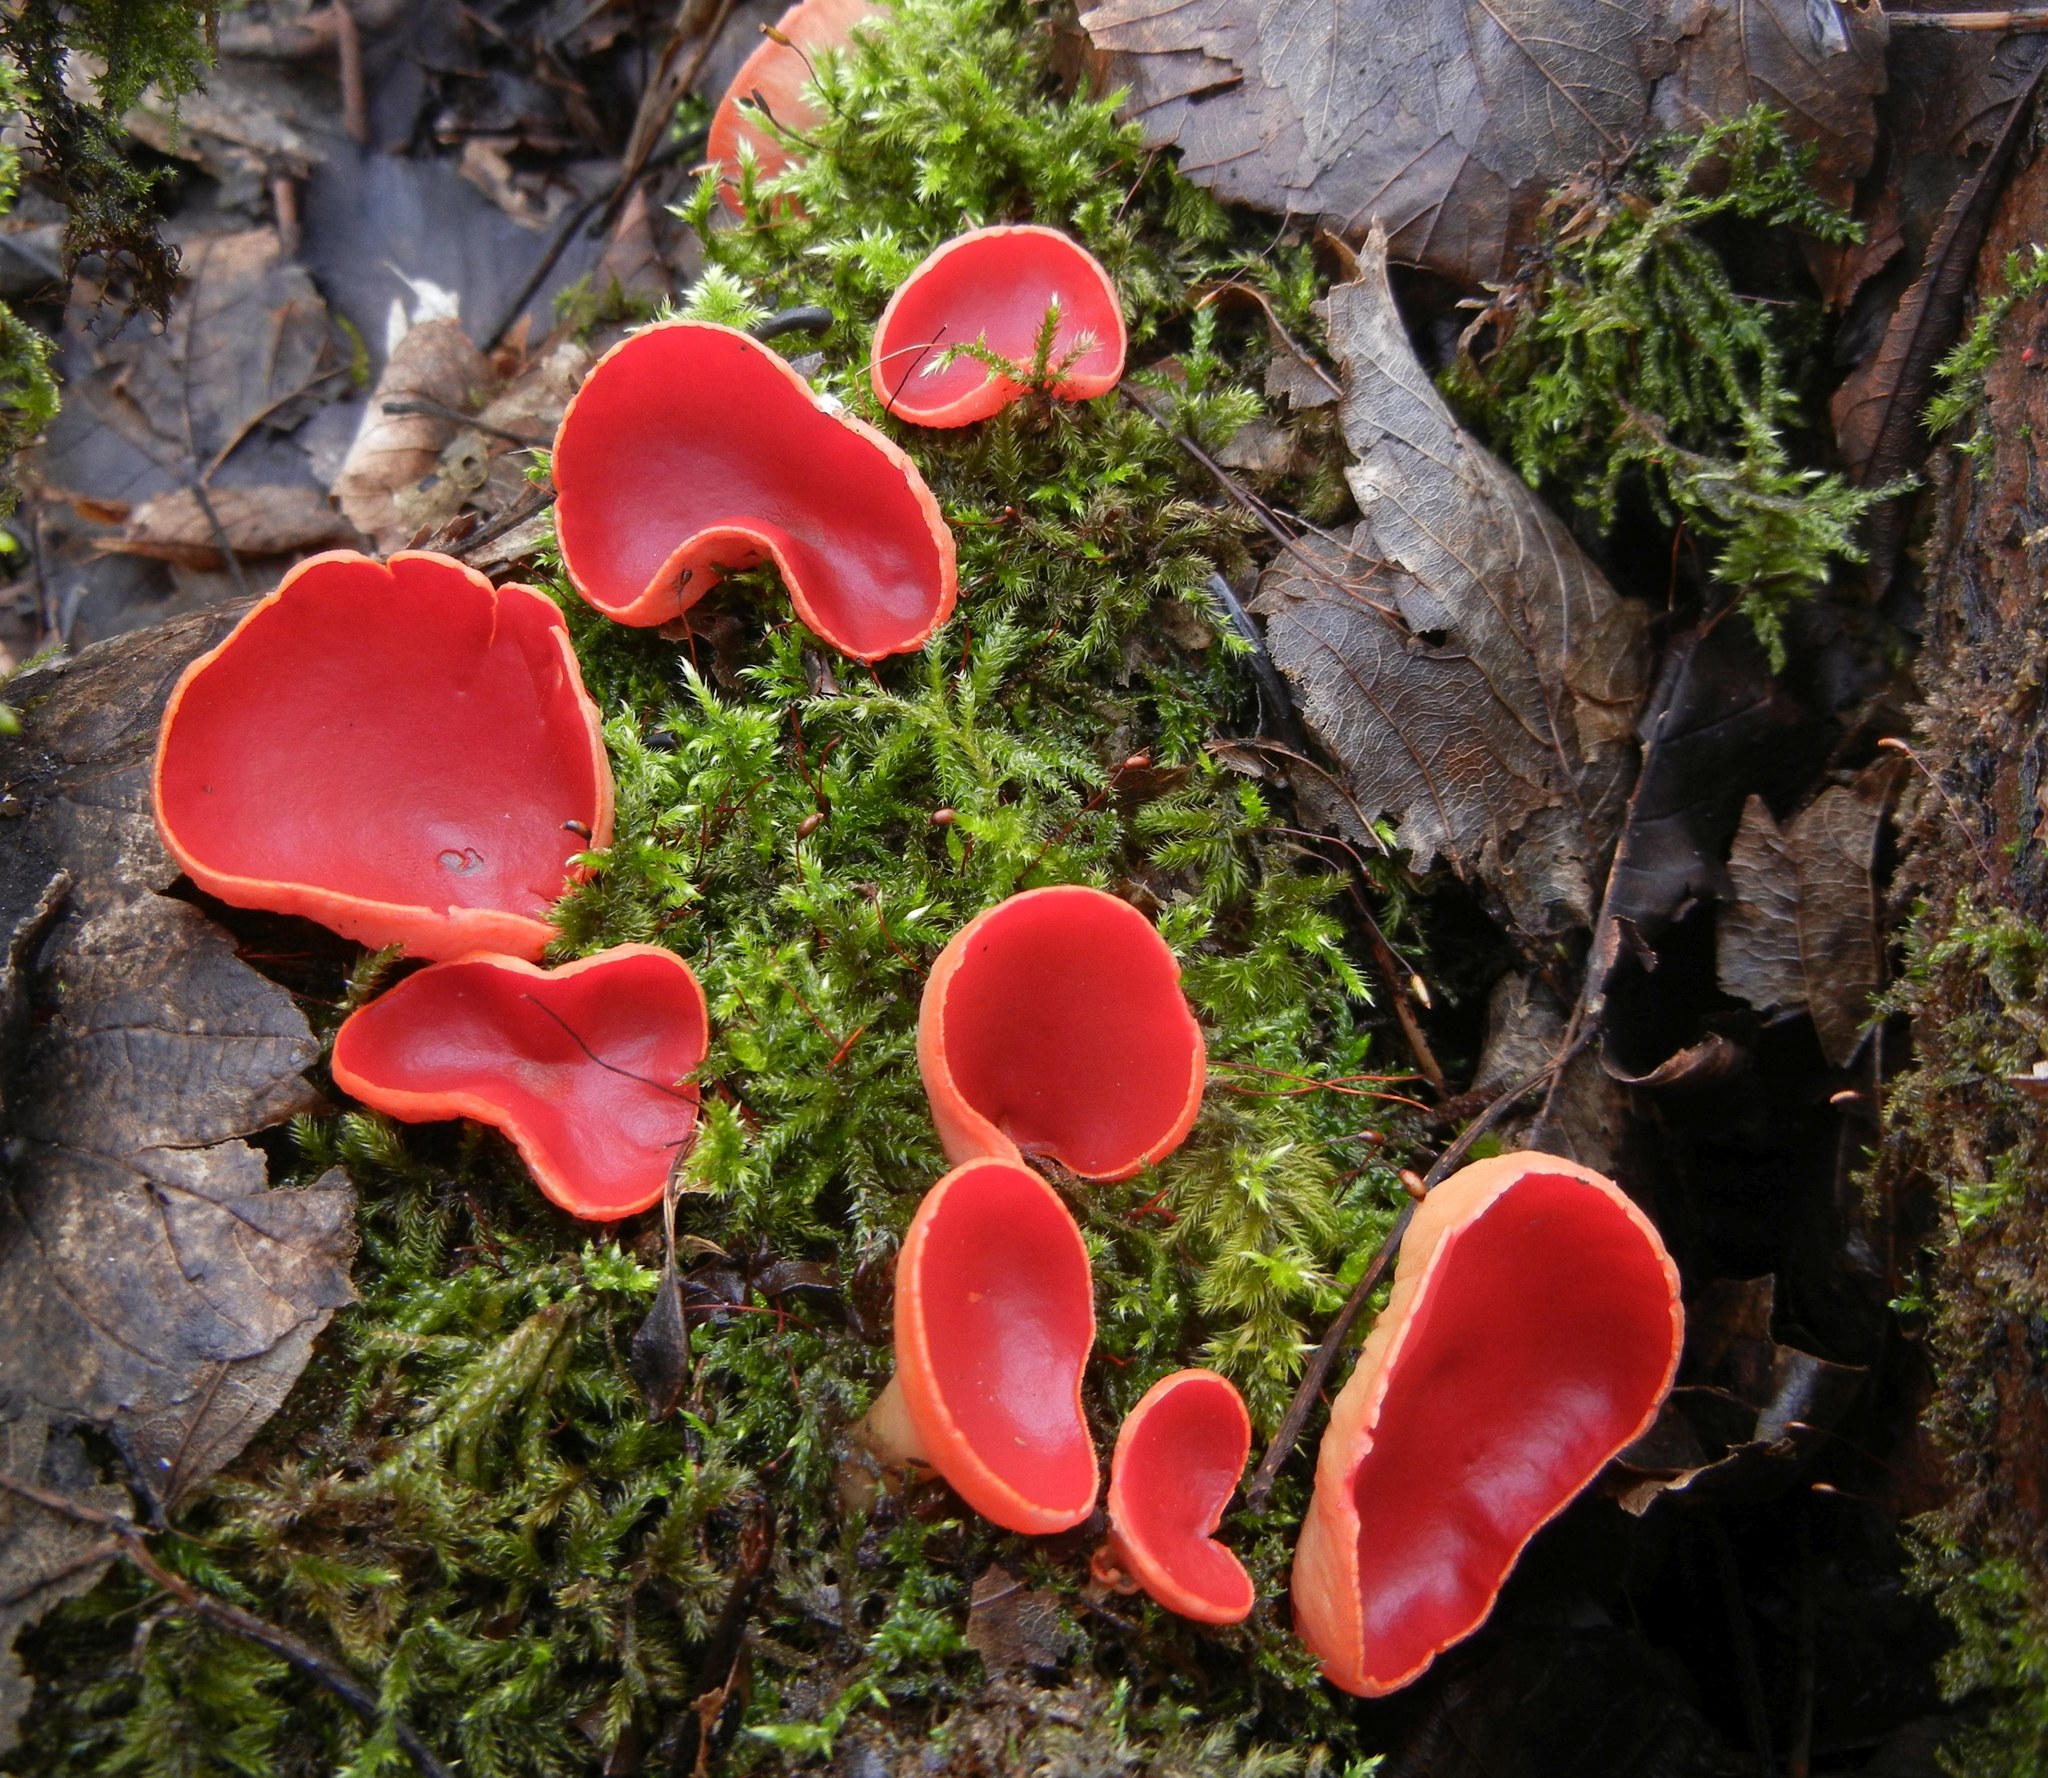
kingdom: Fungi
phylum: Ascomycota
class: Pezizomycetes
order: Pezizales
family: Sarcoscyphaceae
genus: Sarcoscypha
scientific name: Sarcoscypha
